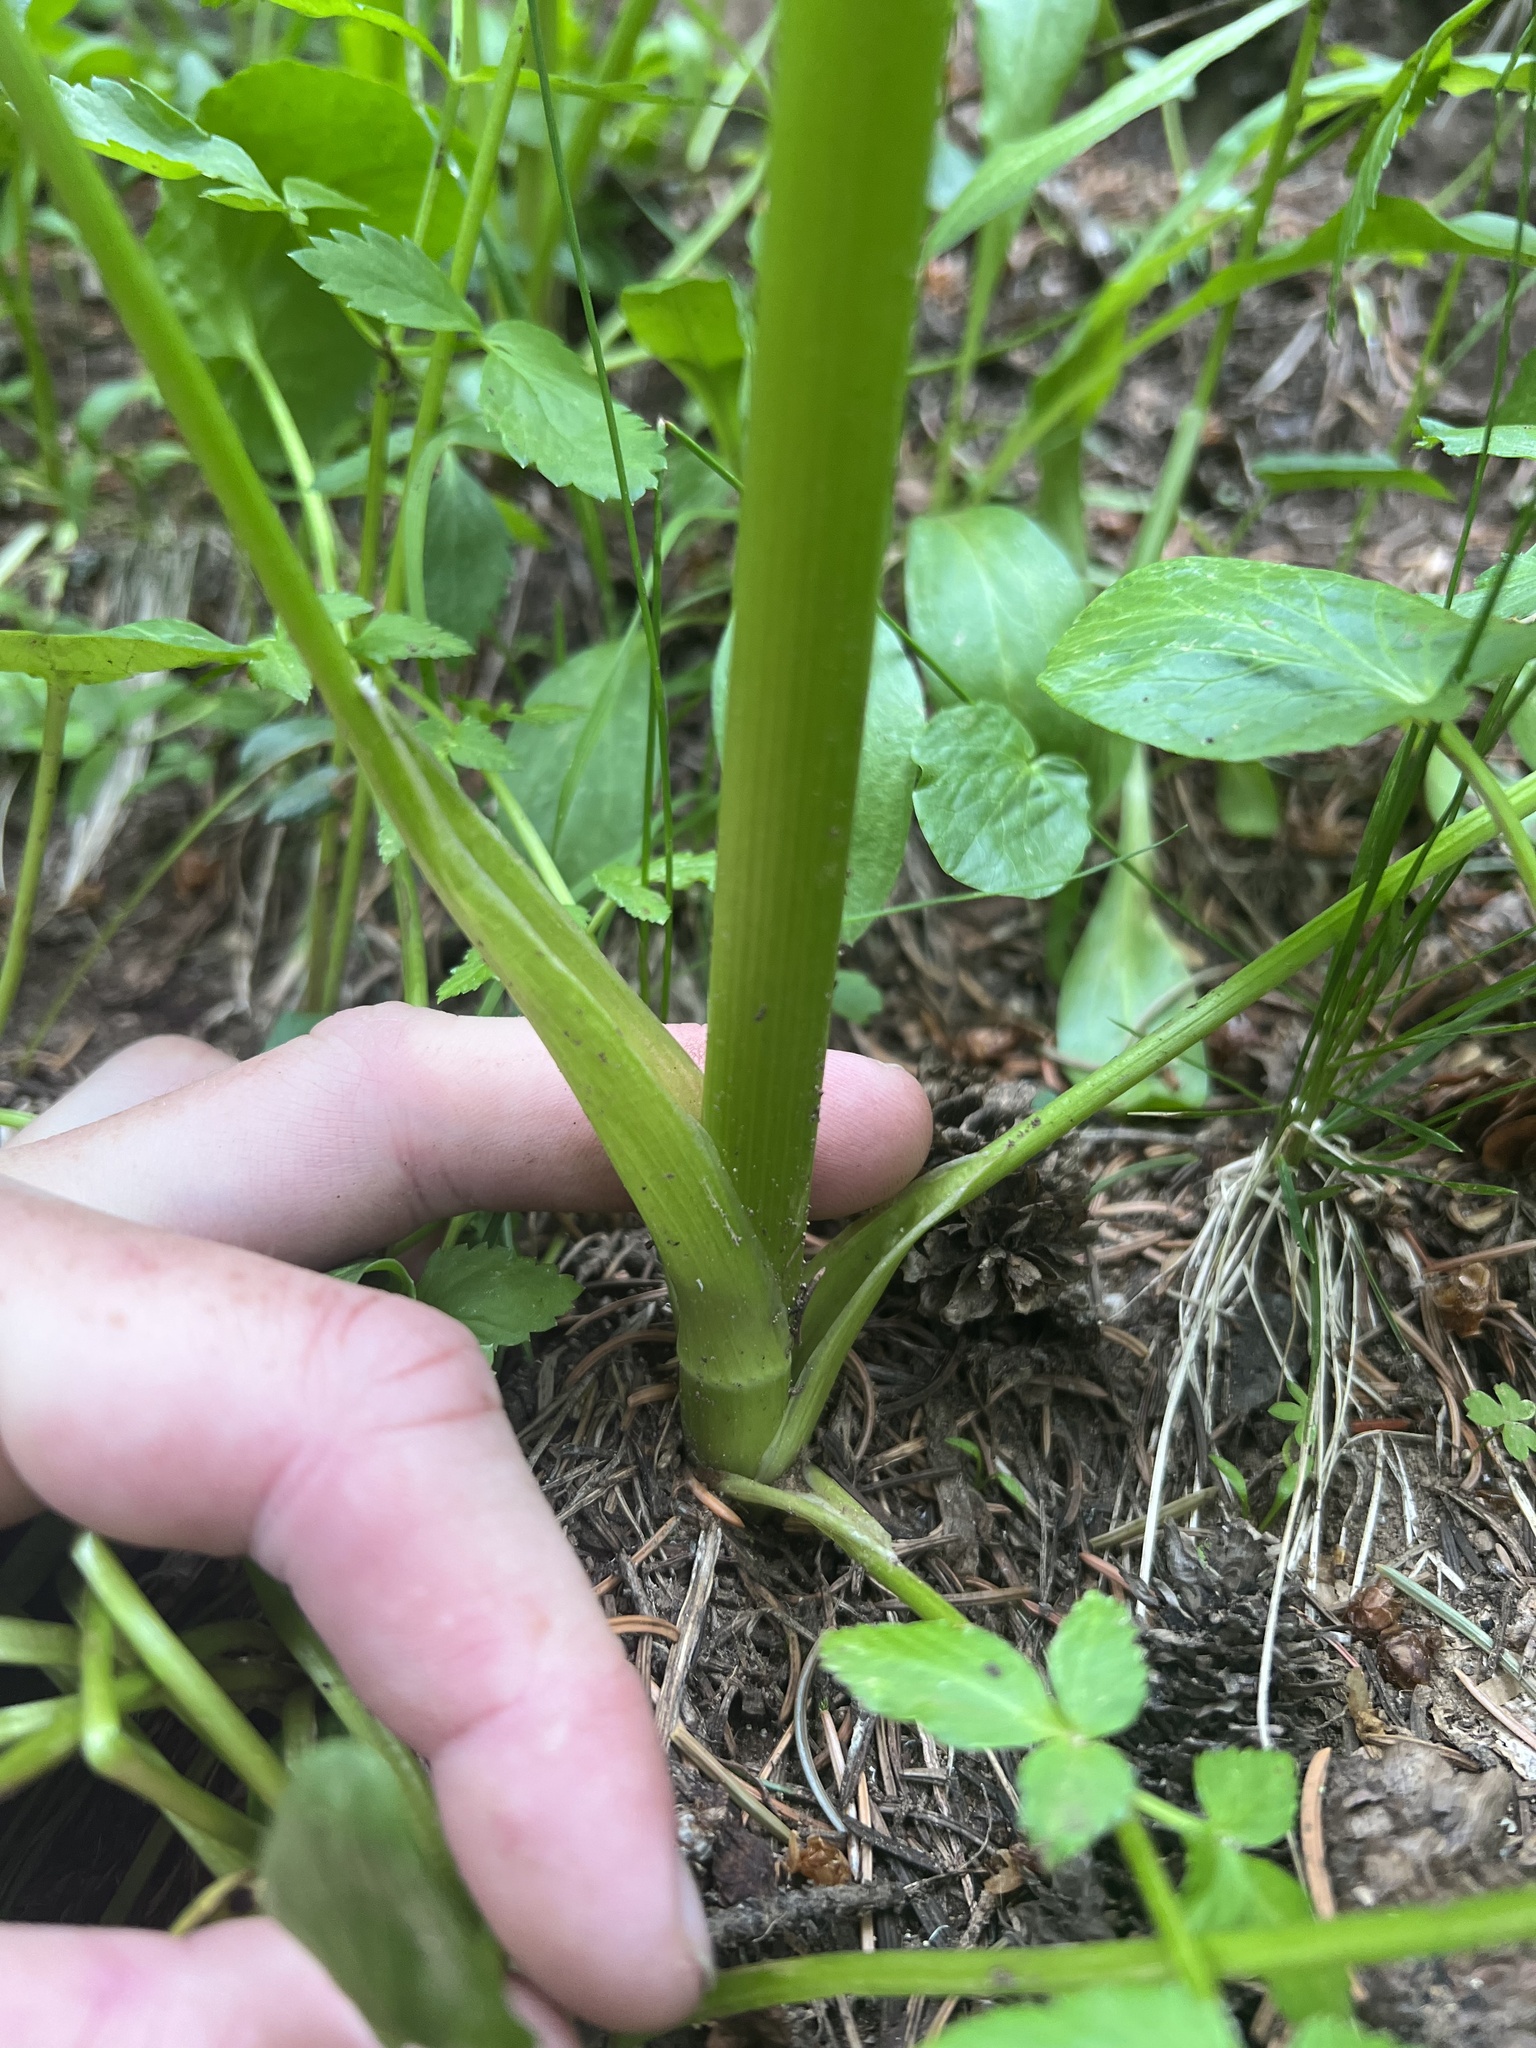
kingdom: Plantae
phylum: Tracheophyta
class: Magnoliopsida
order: Apiales
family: Apiaceae
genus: Angelica
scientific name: Angelica grayi
